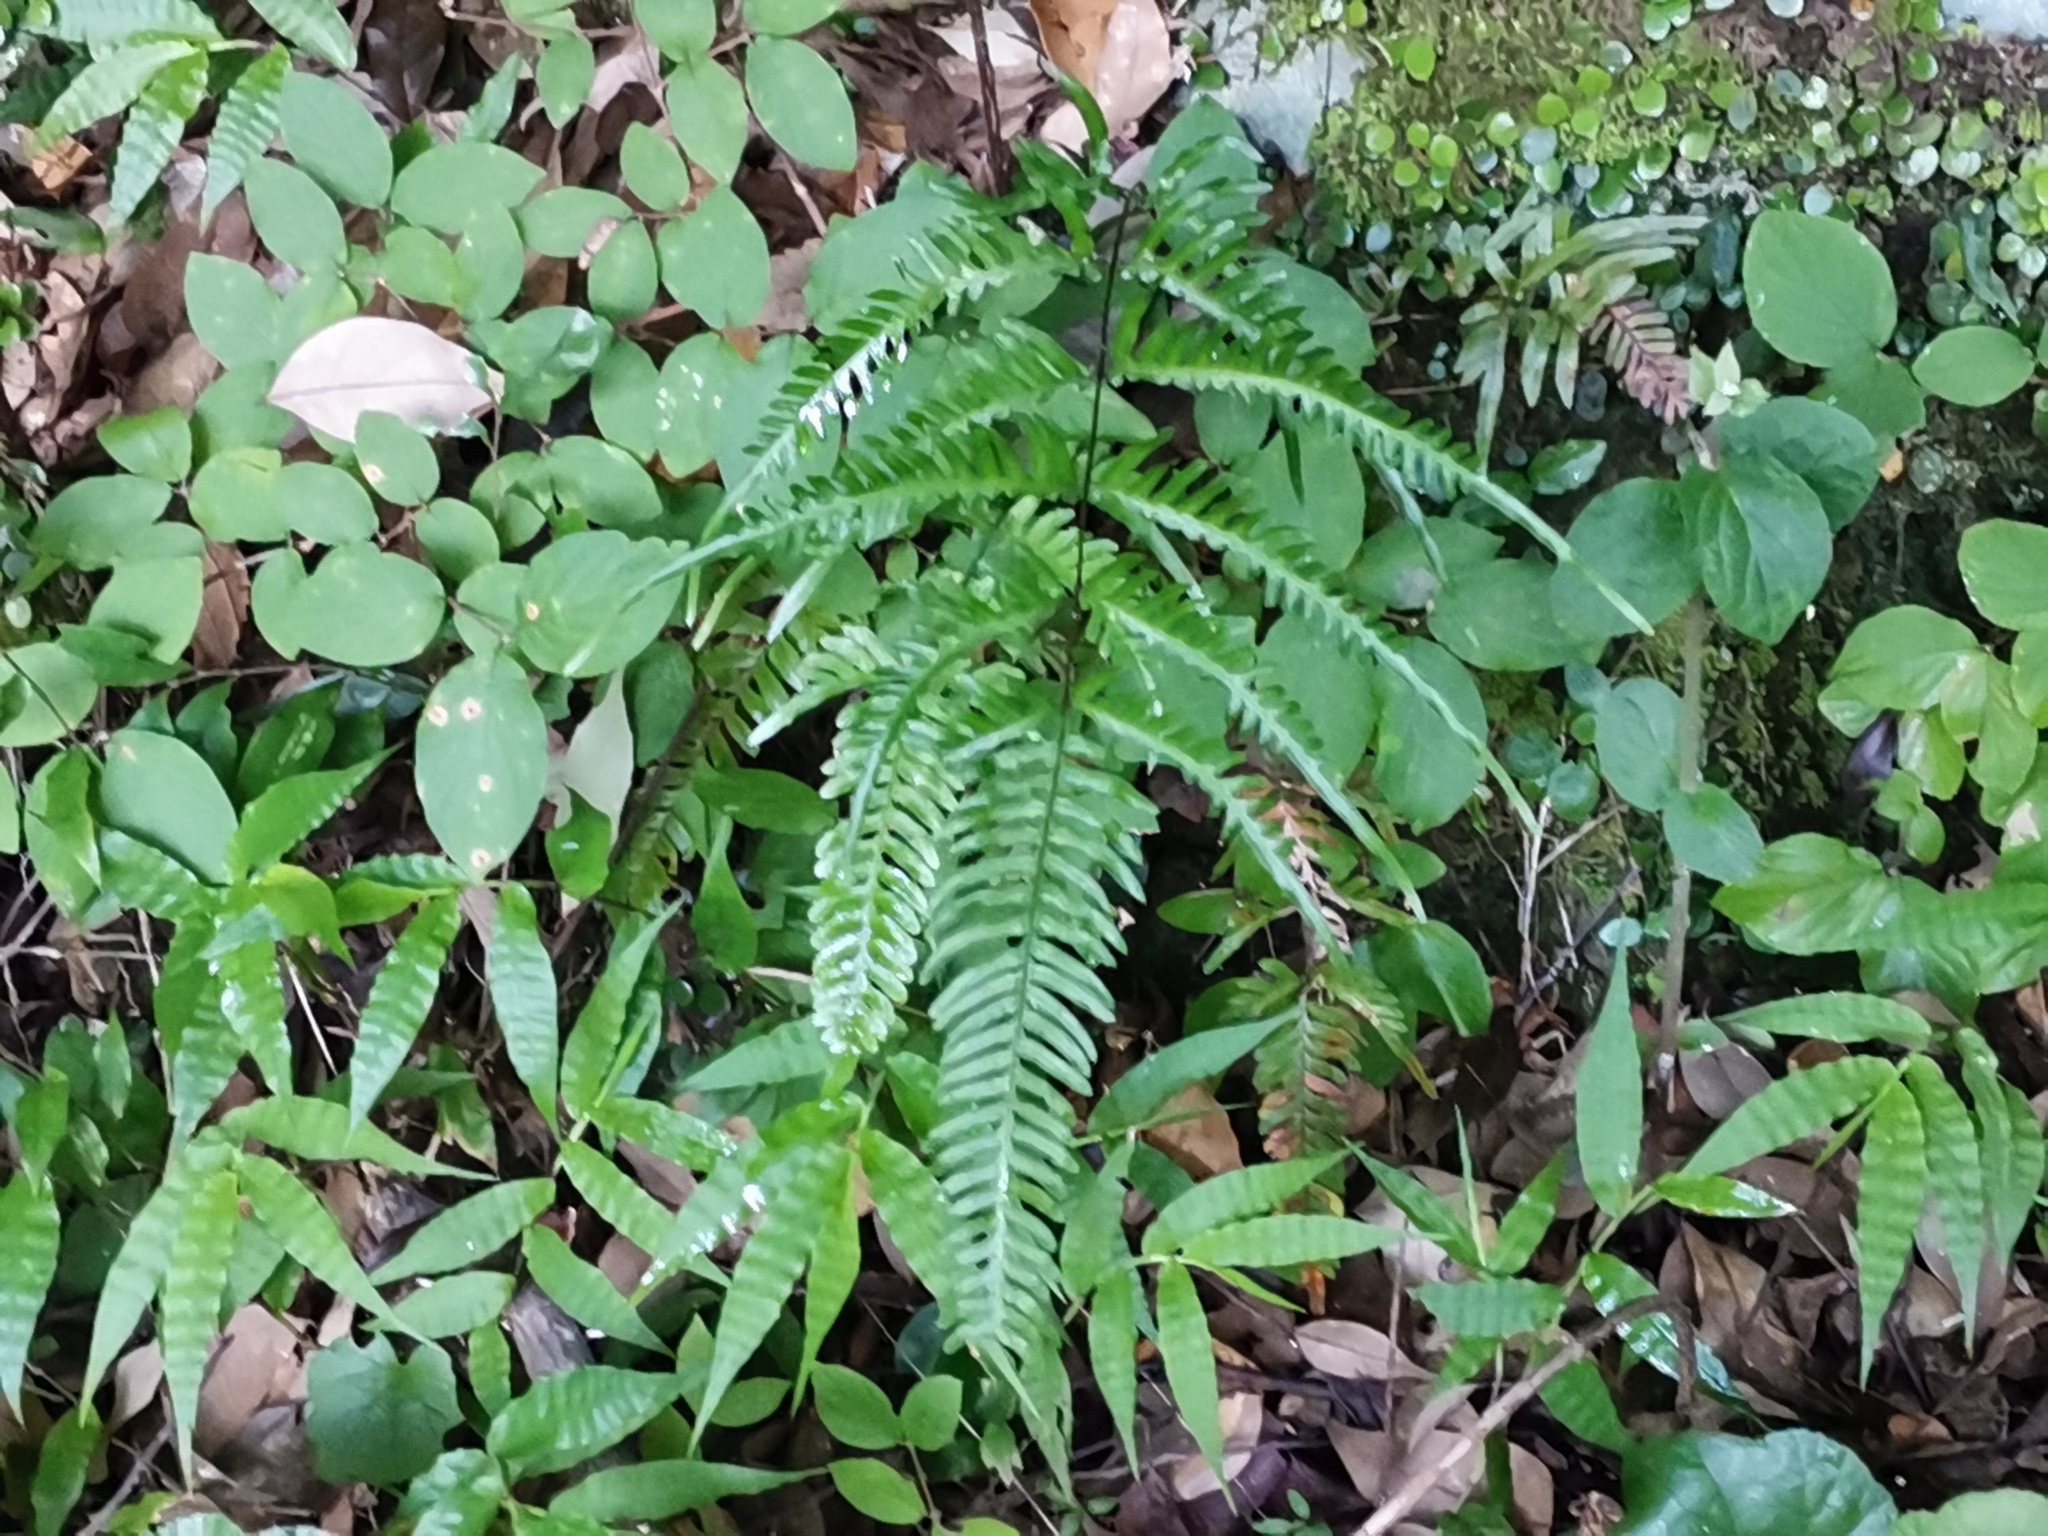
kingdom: Plantae
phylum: Tracheophyta
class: Polypodiopsida
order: Polypodiales
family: Pteridaceae
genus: Pteris
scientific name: Pteris dispar
